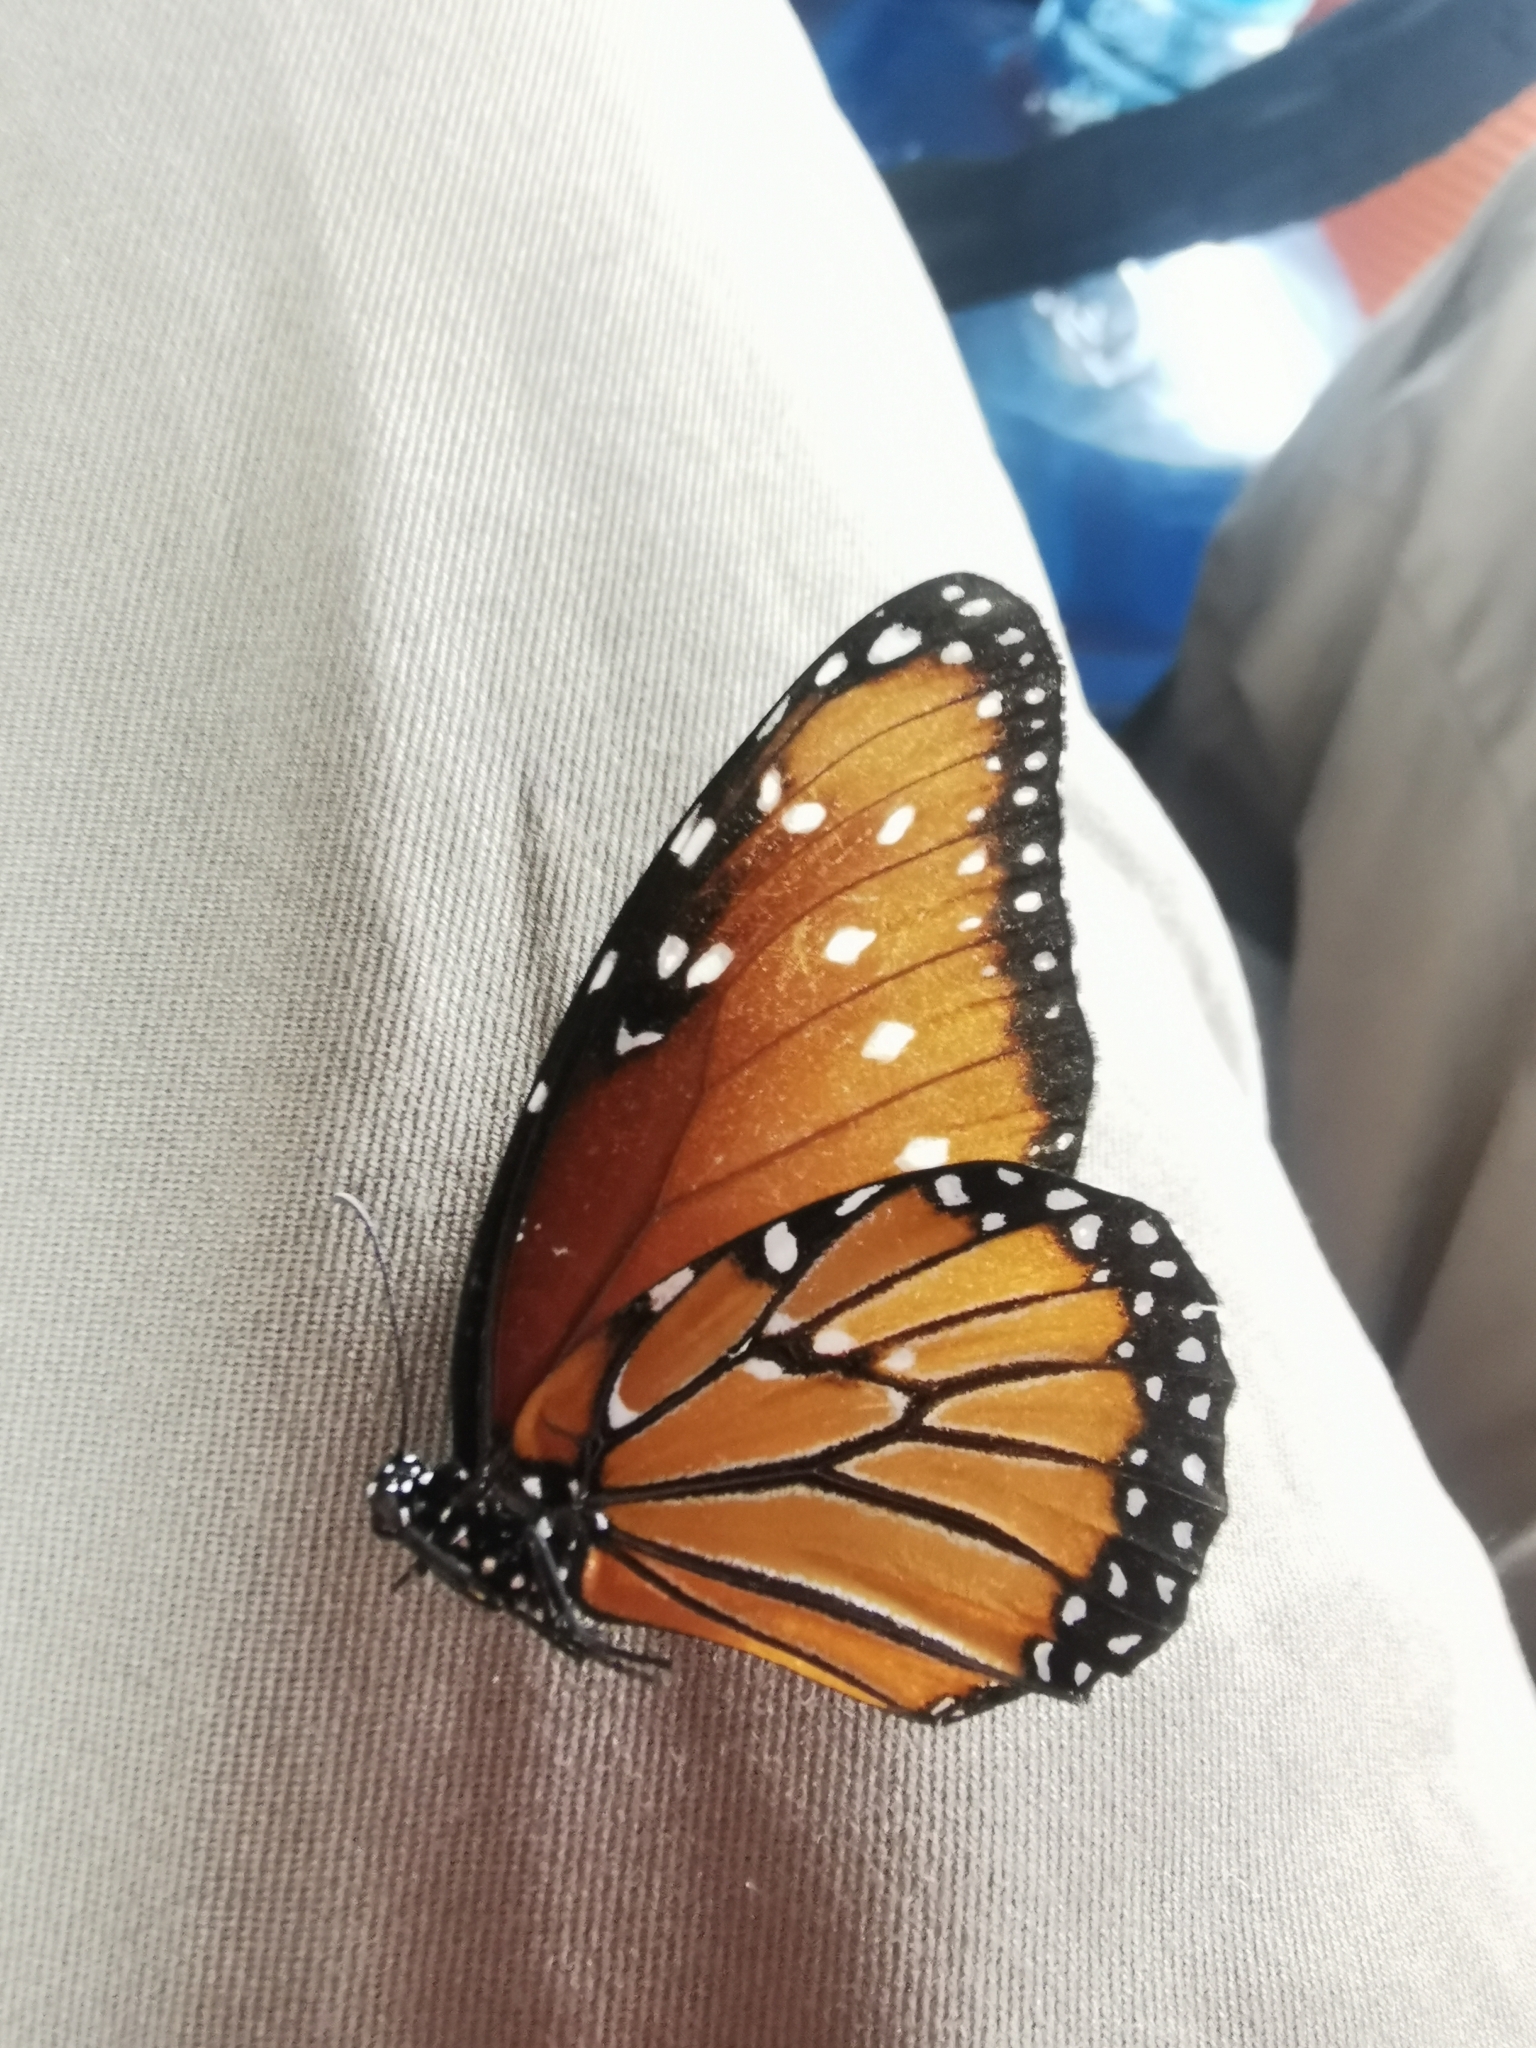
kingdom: Animalia
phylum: Arthropoda
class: Insecta
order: Lepidoptera
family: Nymphalidae
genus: Danaus
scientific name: Danaus gilippus
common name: Queen
